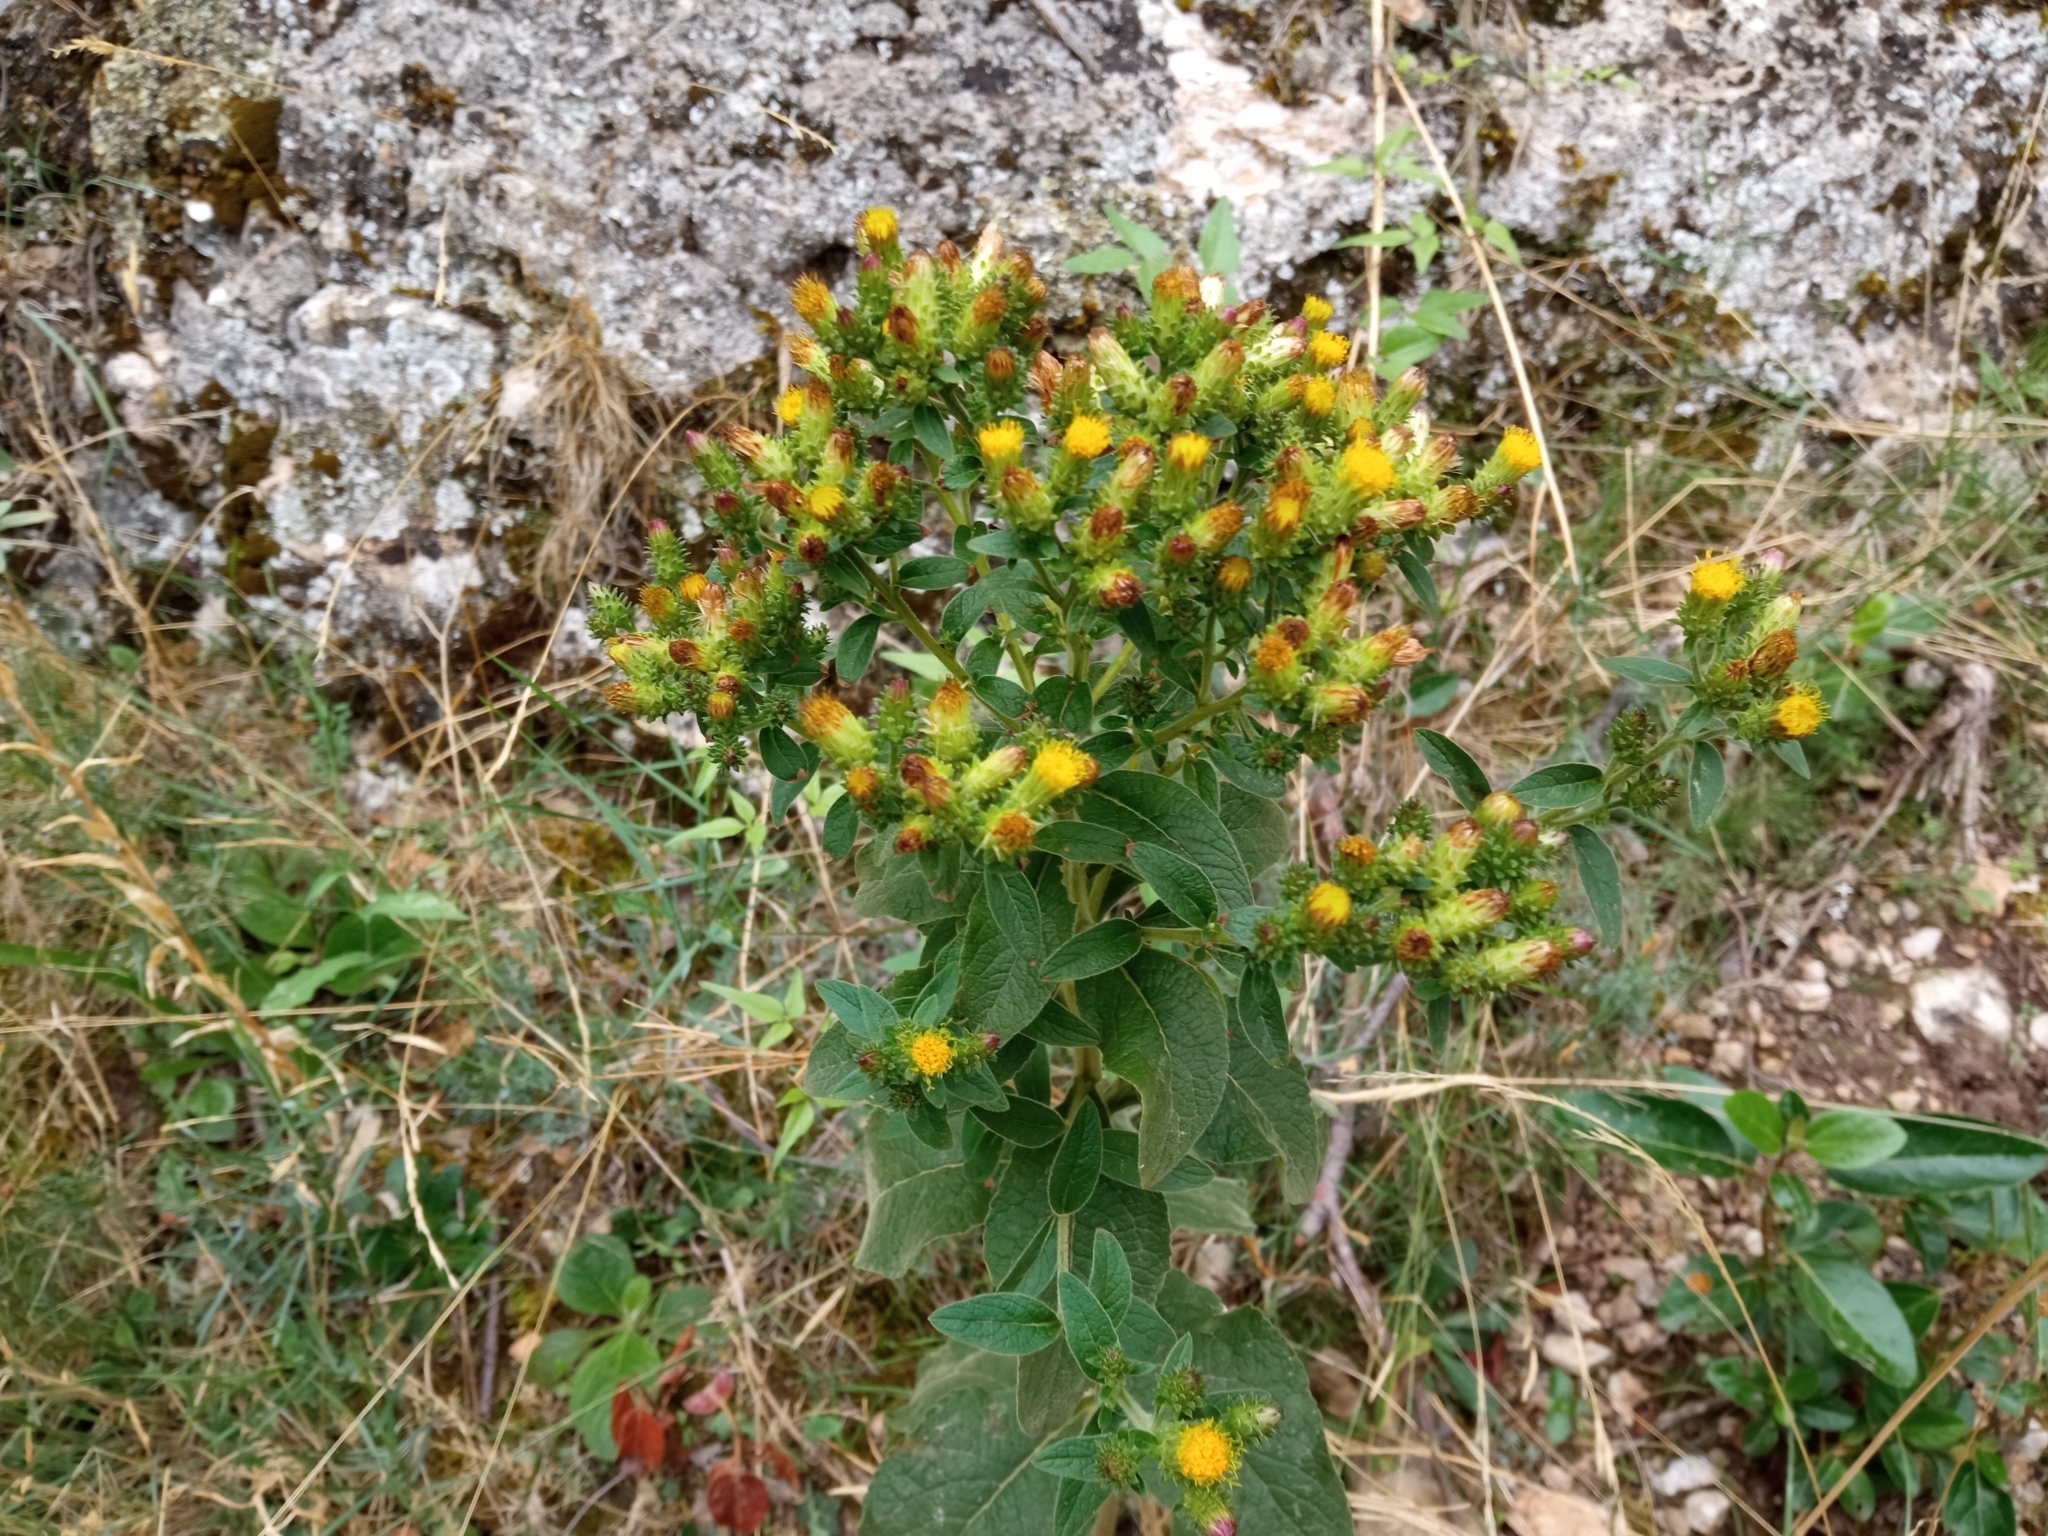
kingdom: Plantae
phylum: Tracheophyta
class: Magnoliopsida
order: Asterales
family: Asteraceae
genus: Pentanema
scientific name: Pentanema squarrosum
